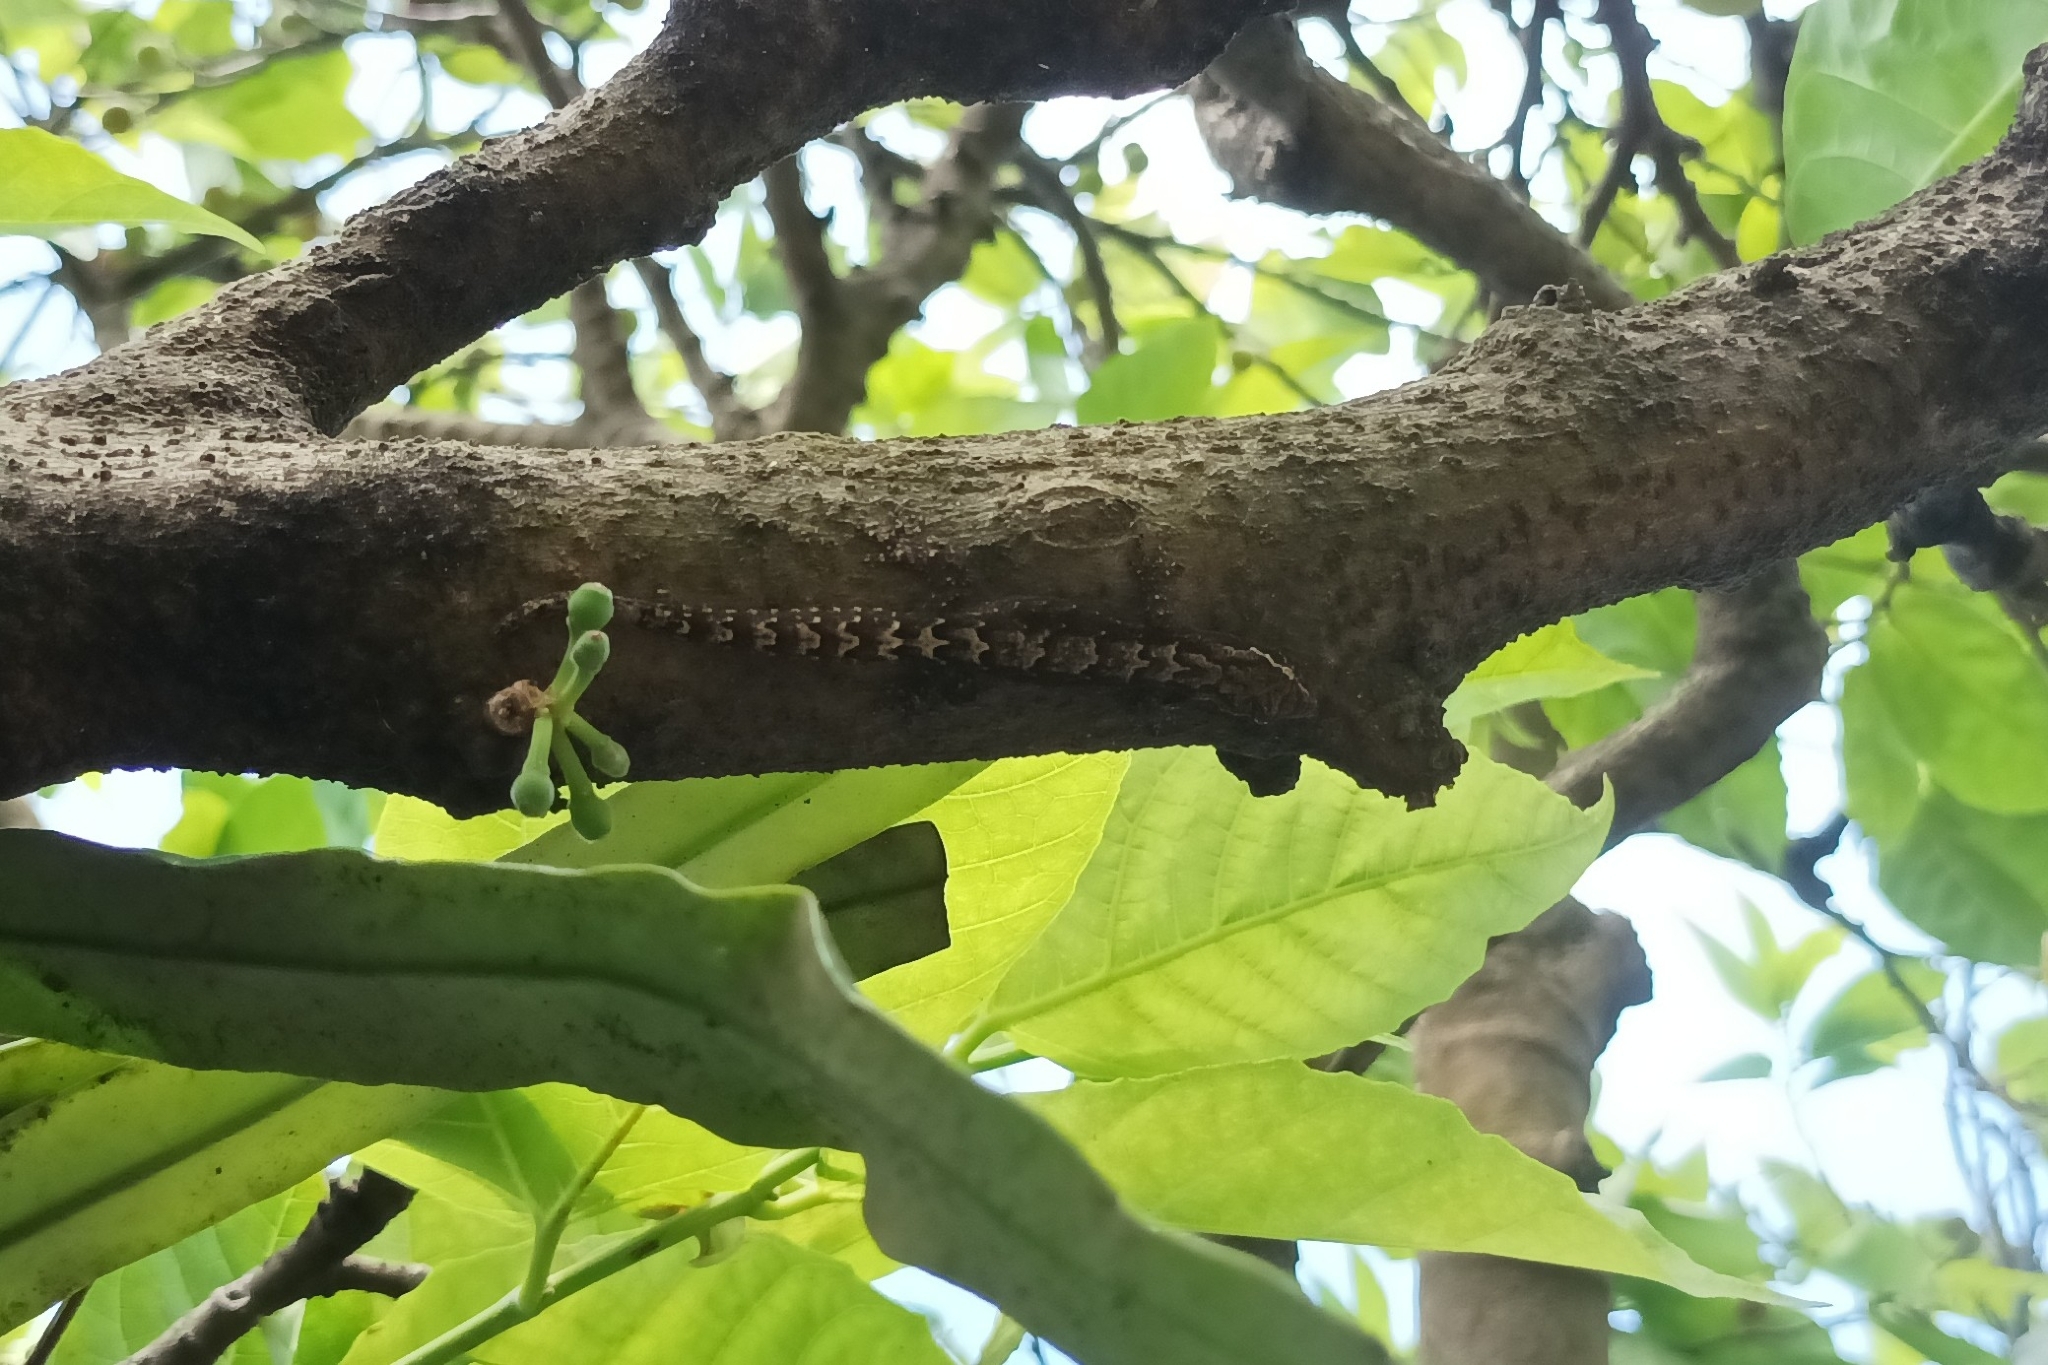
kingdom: Animalia
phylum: Chordata
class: Squamata
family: Gekkonidae
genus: Lepidodactylus
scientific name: Lepidodactylus lugubris
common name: Mourning gecko
